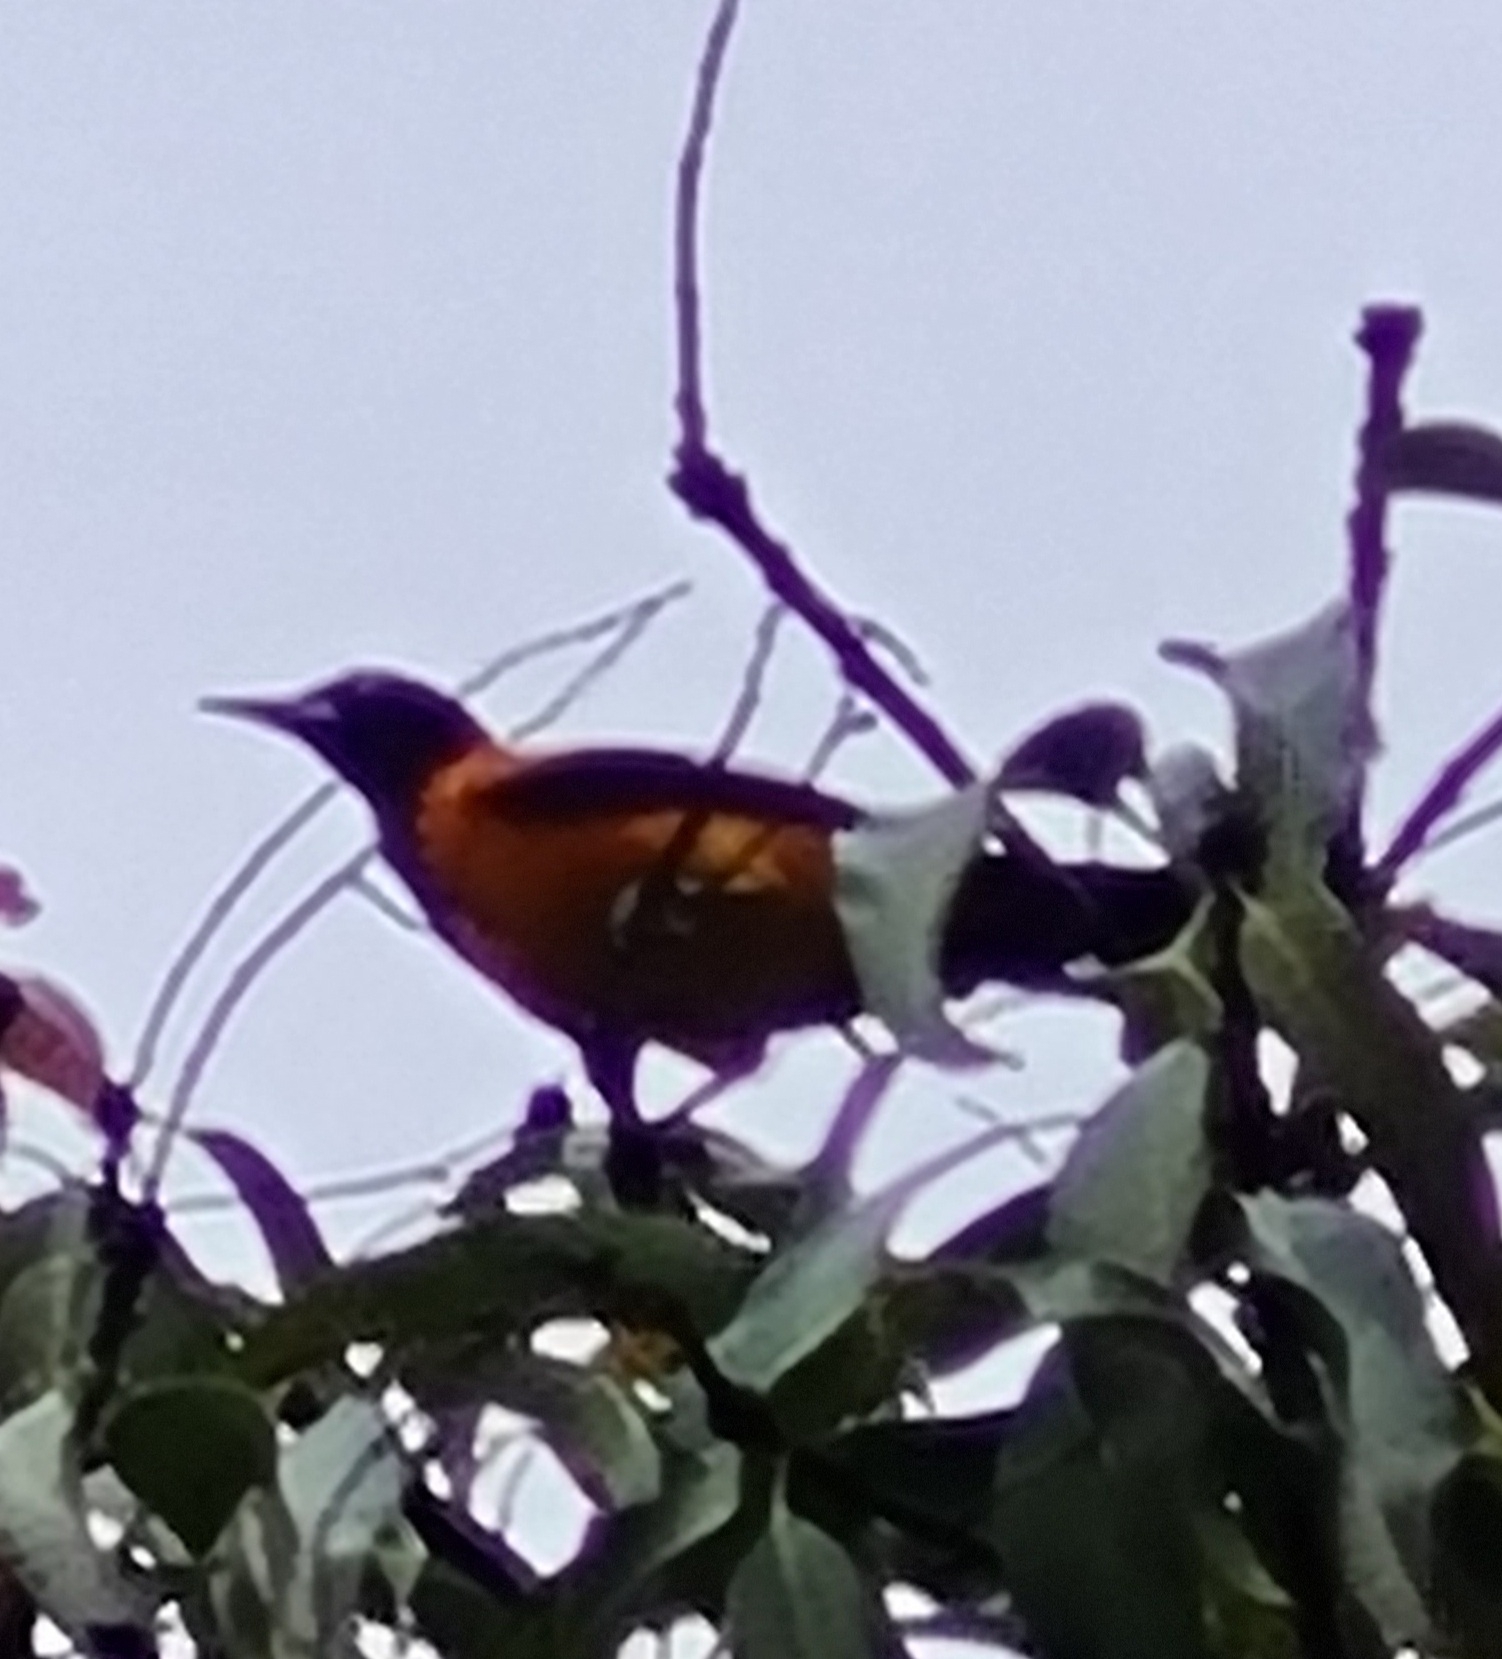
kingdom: Animalia
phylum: Chordata
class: Aves
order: Passeriformes
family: Icteridae
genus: Icterus
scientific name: Icterus icterus
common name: Venezuelan troupial
